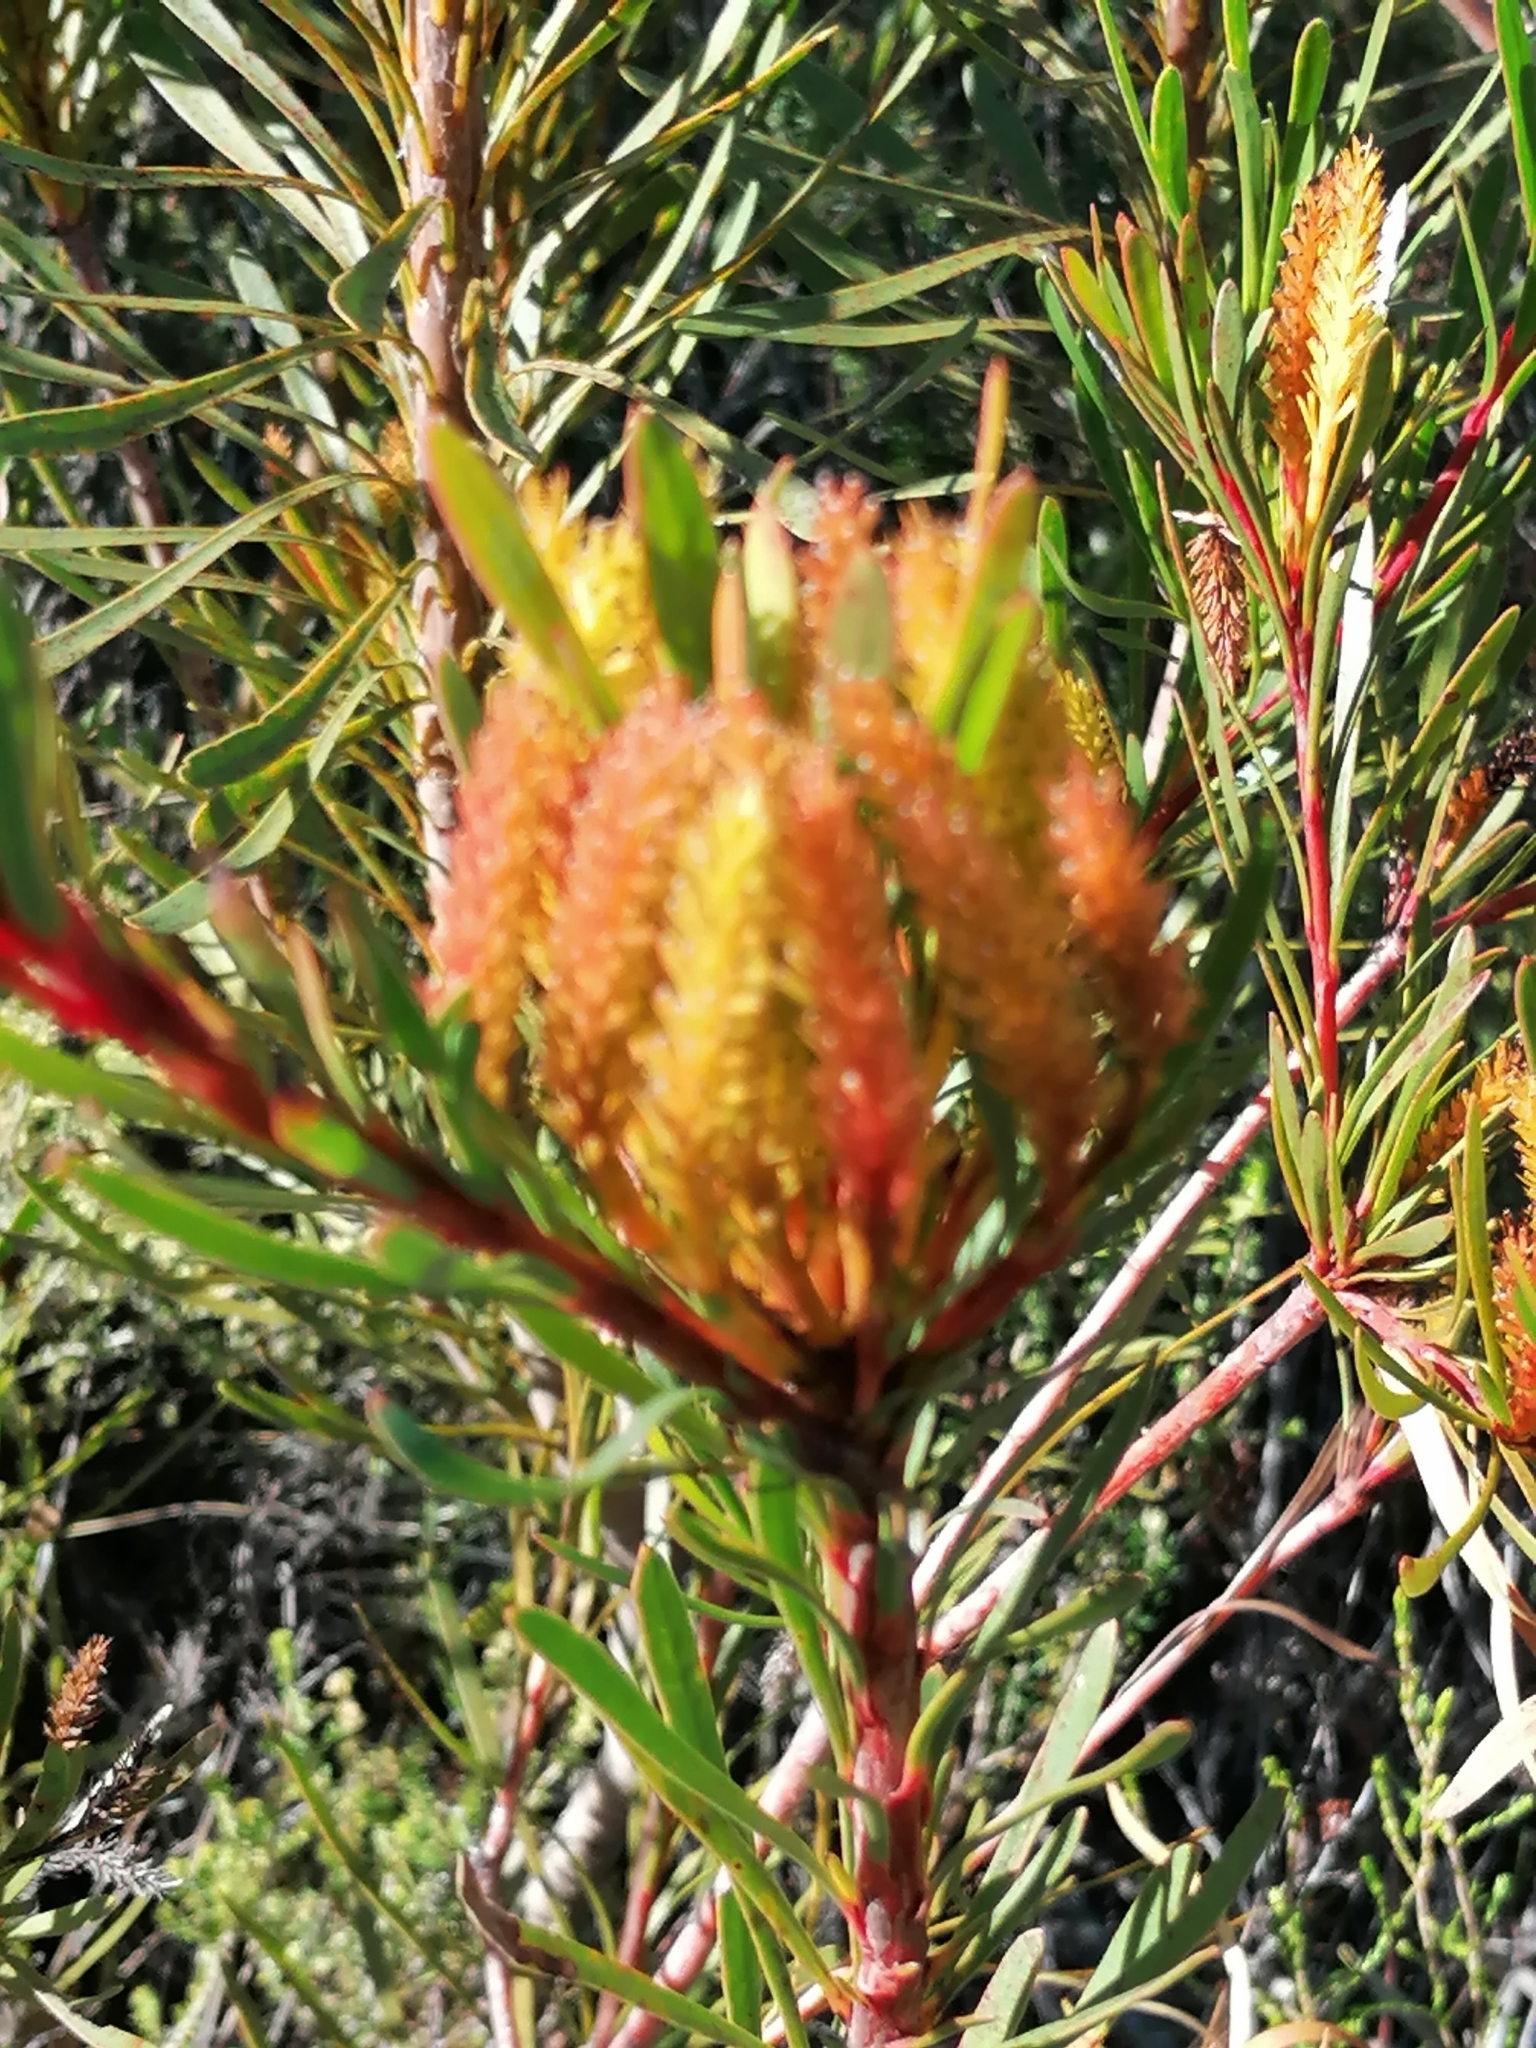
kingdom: Plantae
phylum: Tracheophyta
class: Magnoliopsida
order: Proteales
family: Proteaceae
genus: Aulax
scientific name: Aulax
